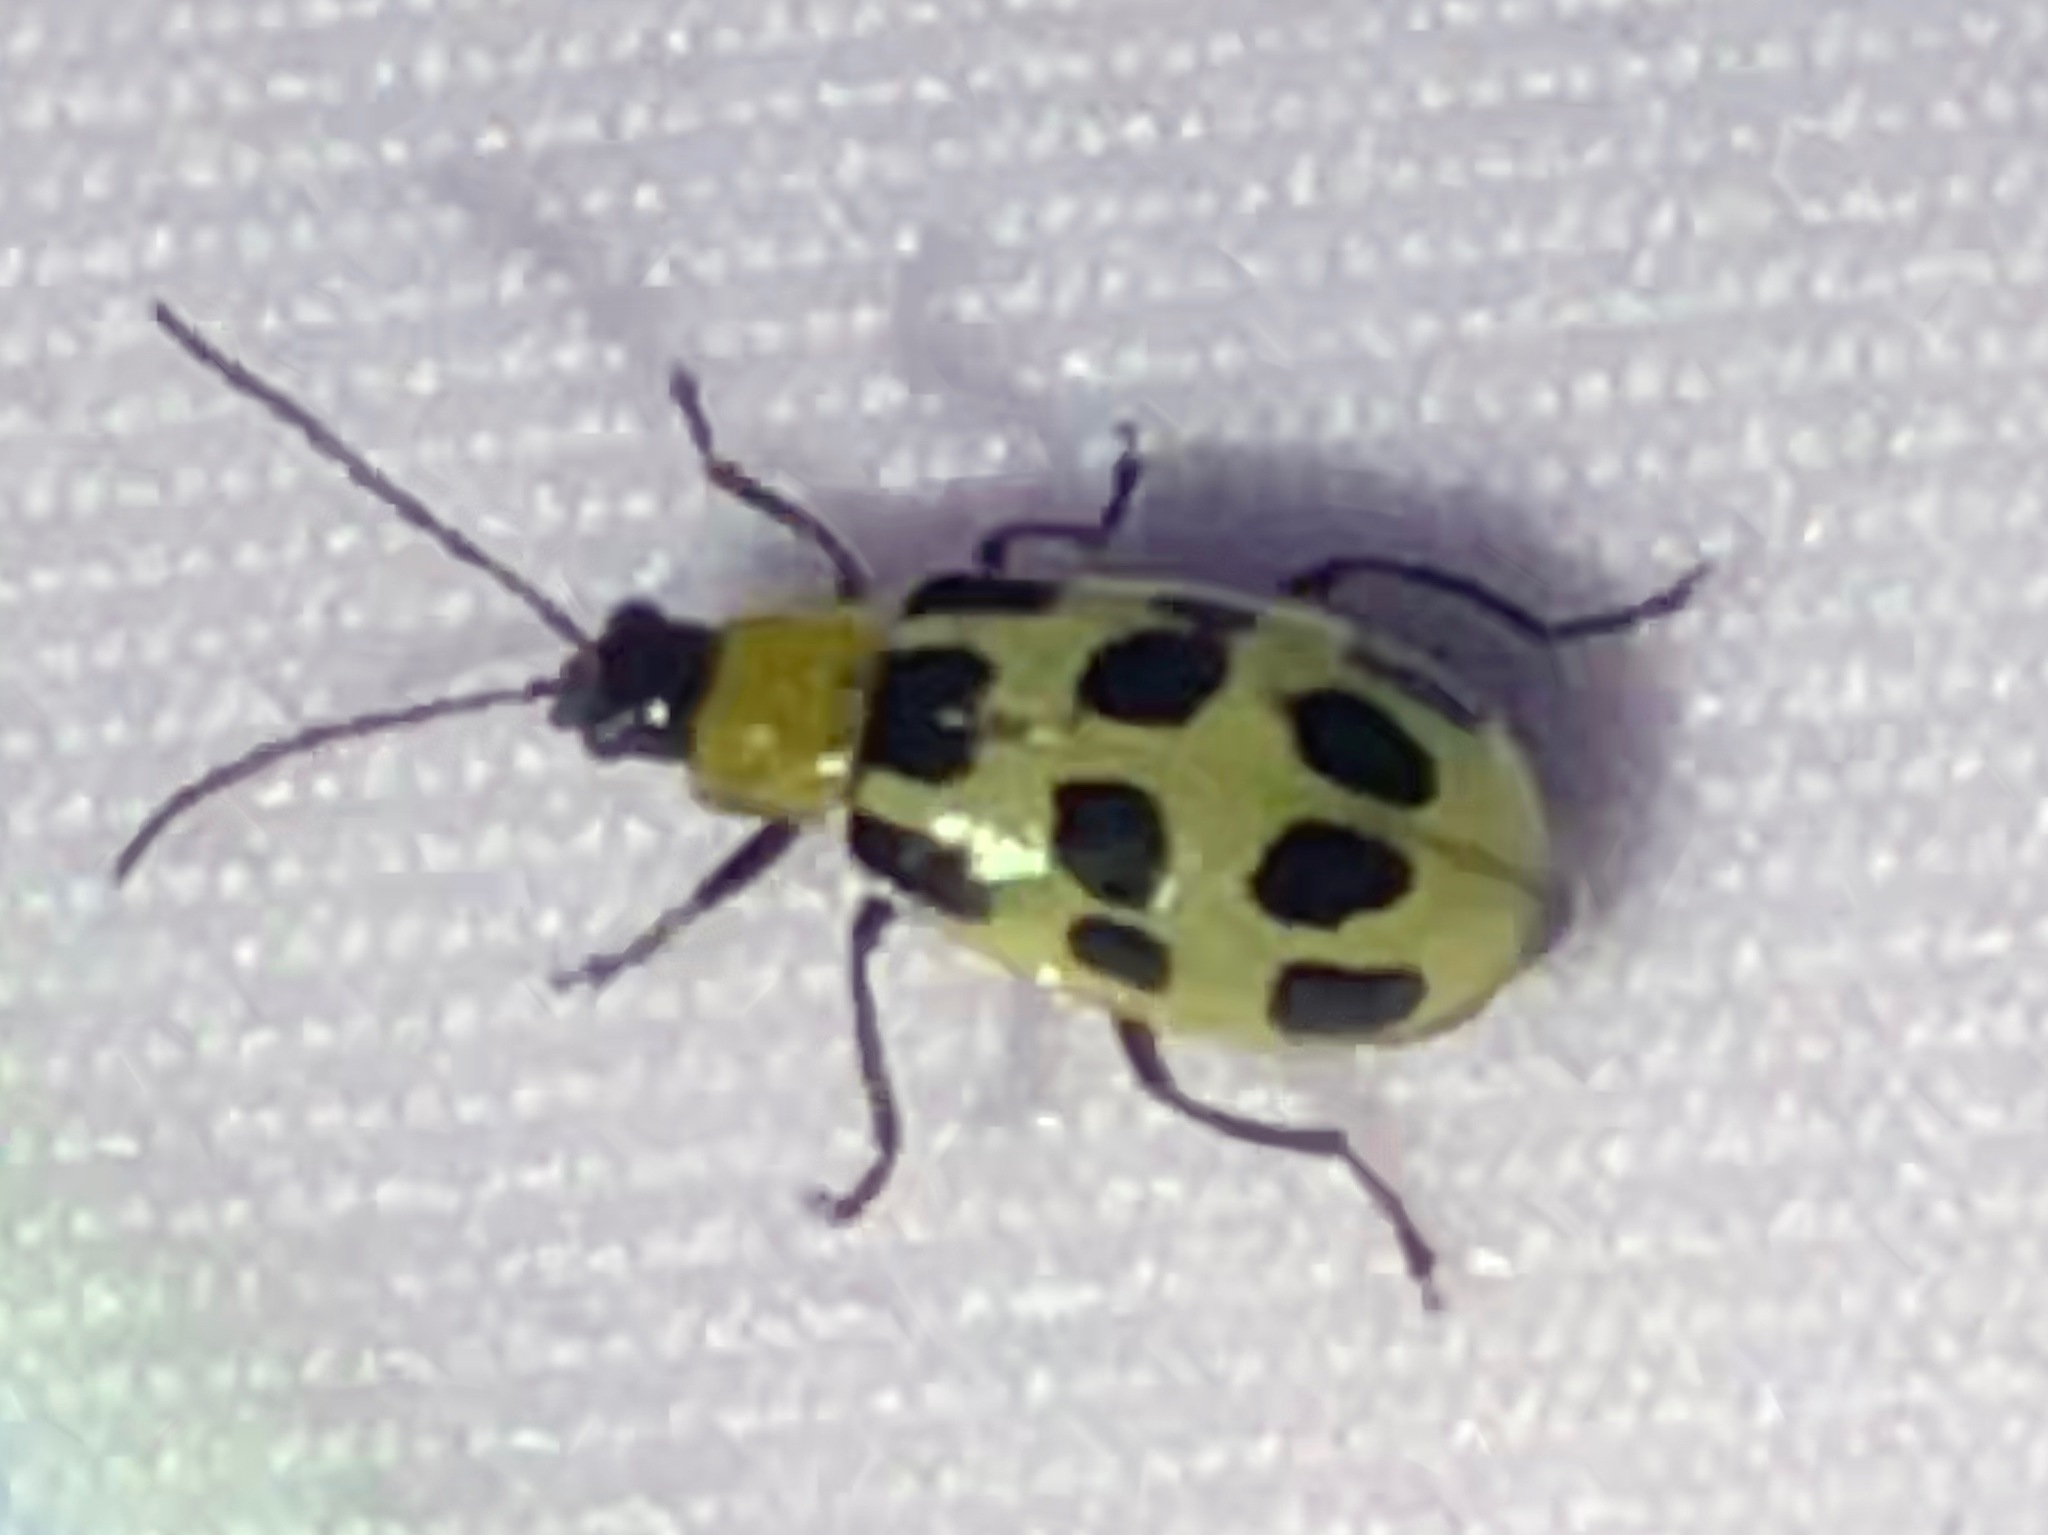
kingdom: Animalia
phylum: Arthropoda
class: Insecta
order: Coleoptera
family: Chrysomelidae
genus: Diabrotica
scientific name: Diabrotica undecimpunctata
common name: Spotted cucumber beetle
